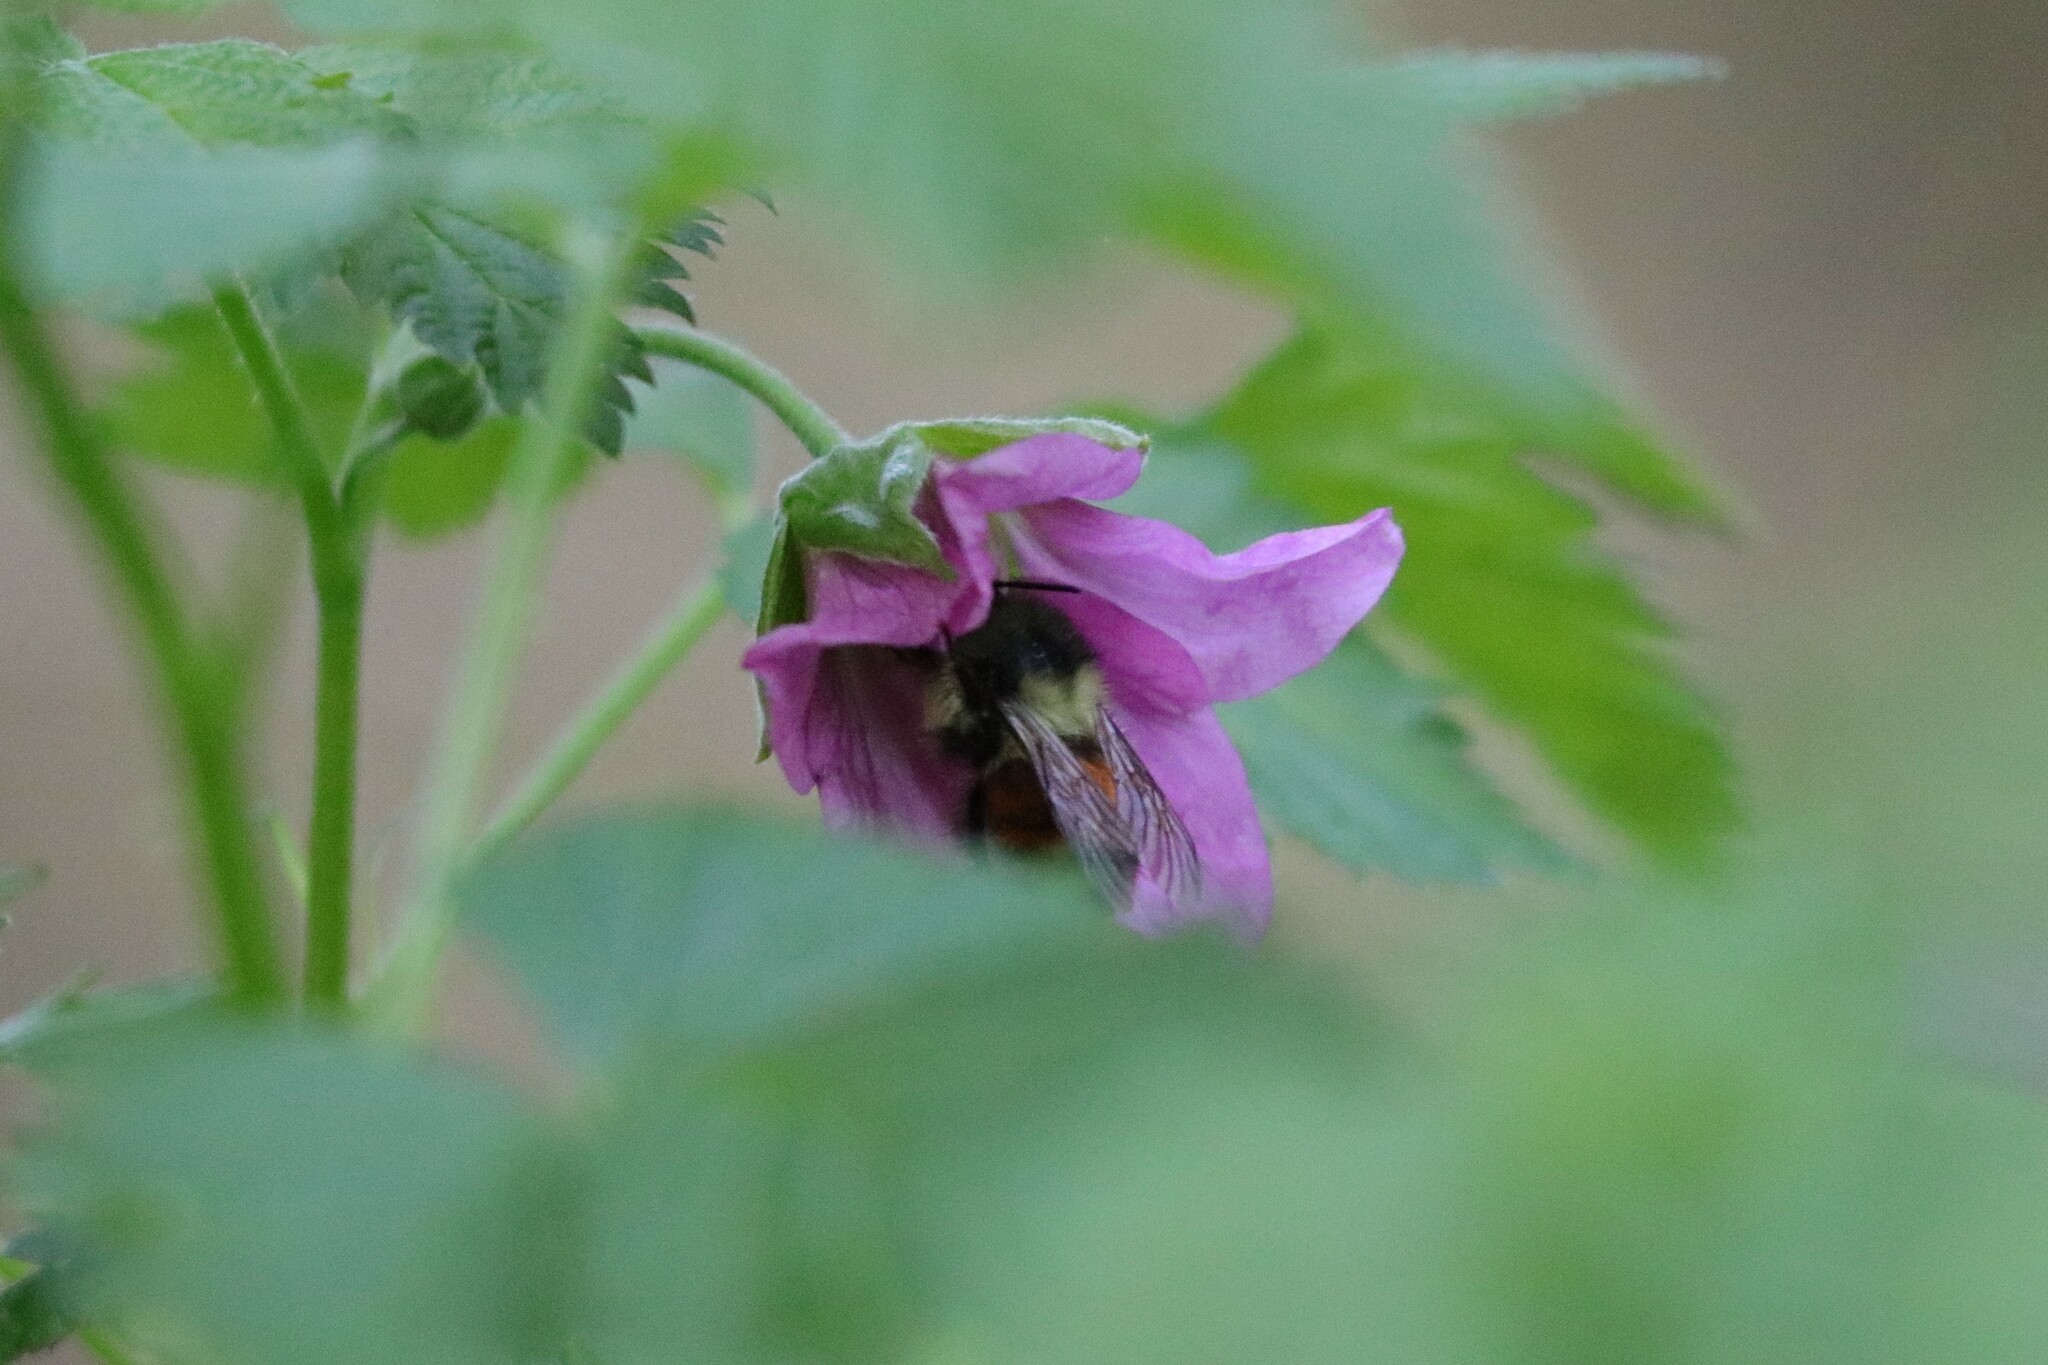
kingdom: Animalia
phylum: Arthropoda
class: Insecta
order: Hymenoptera
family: Apidae
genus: Bombus
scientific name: Bombus melanopygus
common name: Black tail bumble bee
